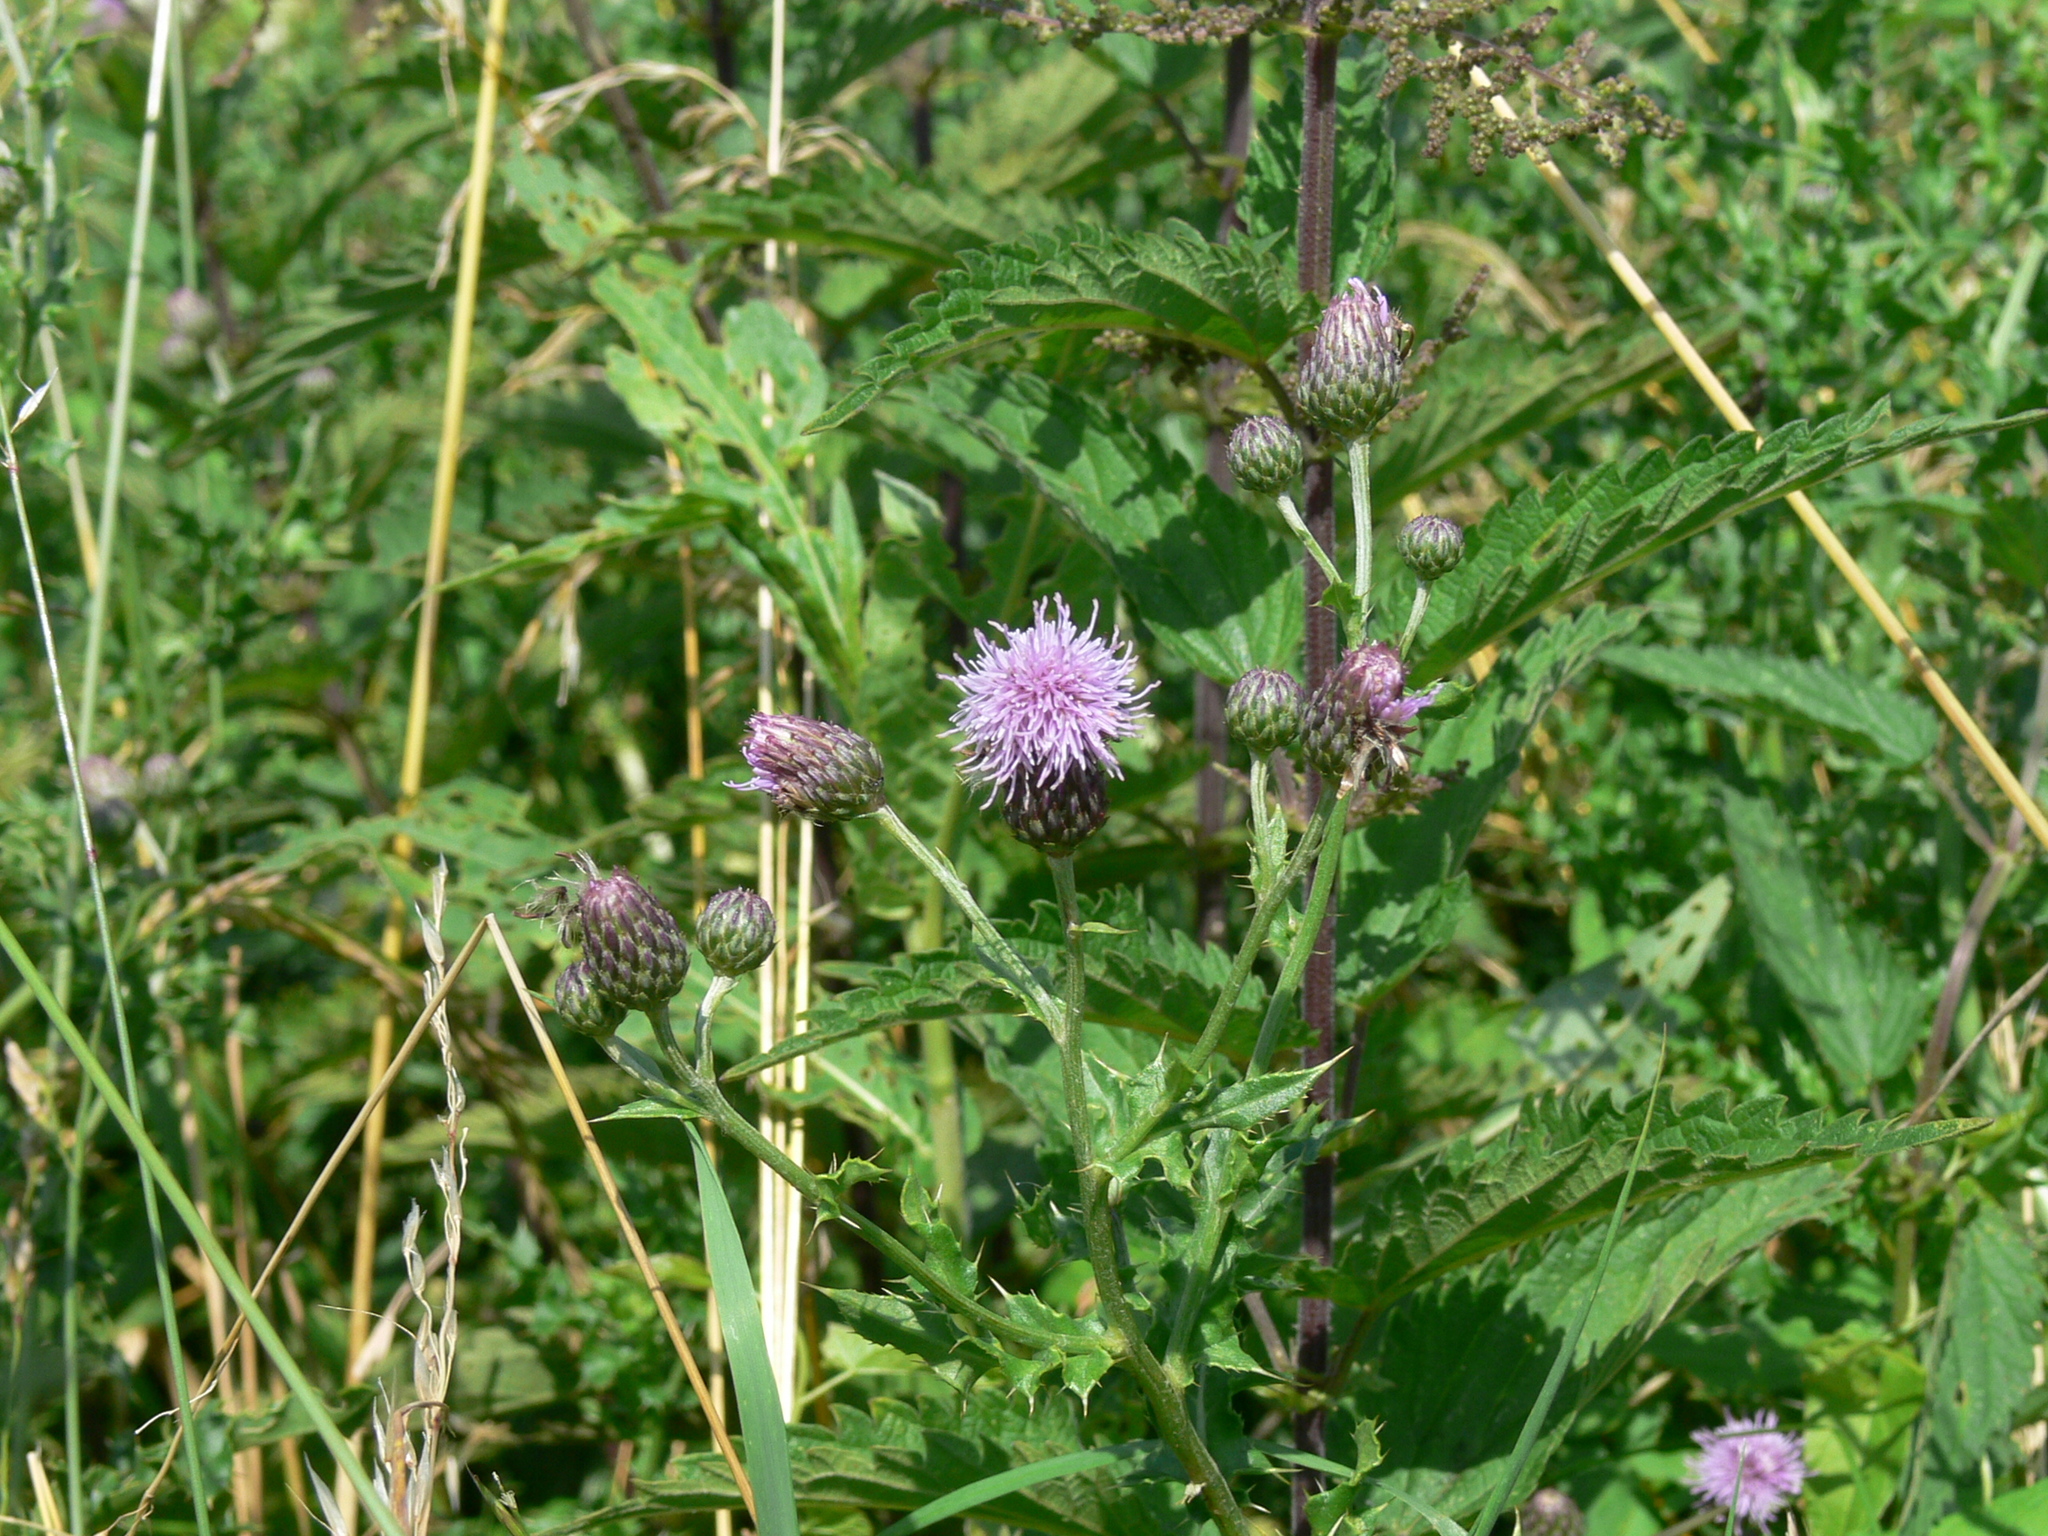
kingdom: Plantae
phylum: Tracheophyta
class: Magnoliopsida
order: Asterales
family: Asteraceae
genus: Cirsium
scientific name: Cirsium arvense
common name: Creeping thistle
